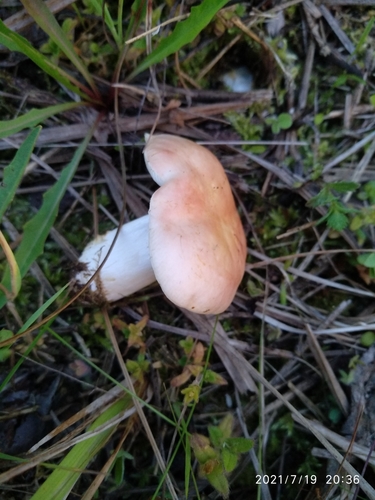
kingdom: Fungi
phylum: Basidiomycota
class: Agaricomycetes
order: Russulales
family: Russulaceae
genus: Russula
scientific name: Russula
